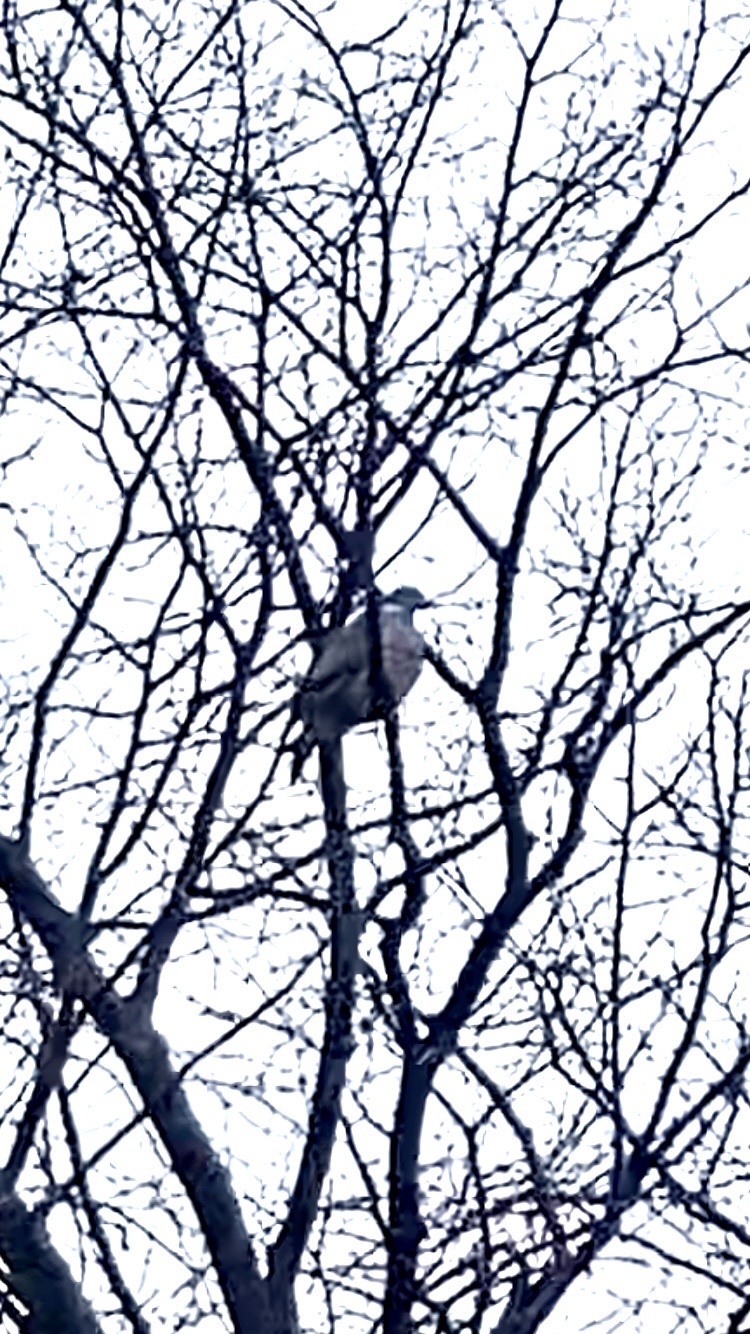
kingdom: Animalia
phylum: Chordata
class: Aves
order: Columbiformes
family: Columbidae
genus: Columba
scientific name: Columba palumbus
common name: Common wood pigeon
